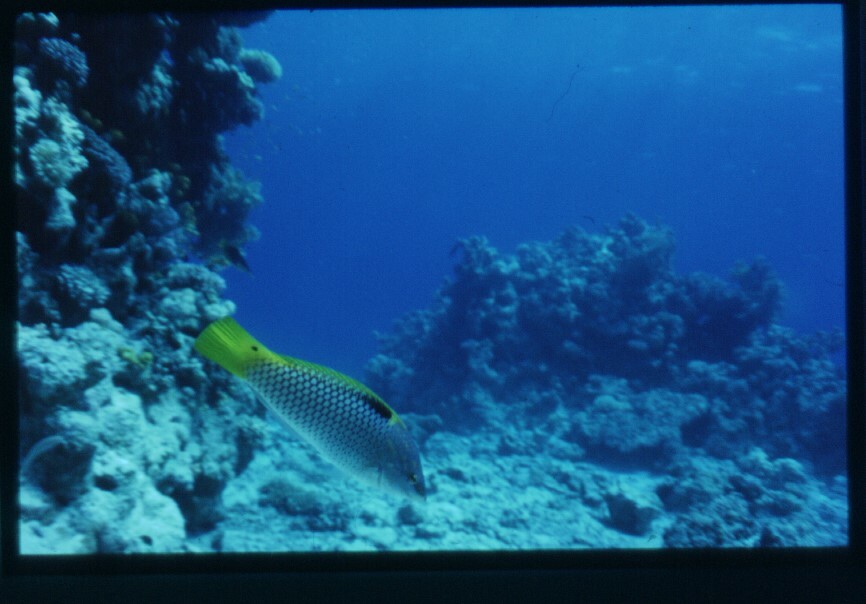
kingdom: Animalia
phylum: Chordata
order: Perciformes
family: Labridae
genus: Halichoeres
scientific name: Halichoeres hortulanus
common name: Checkerboard wrasse
